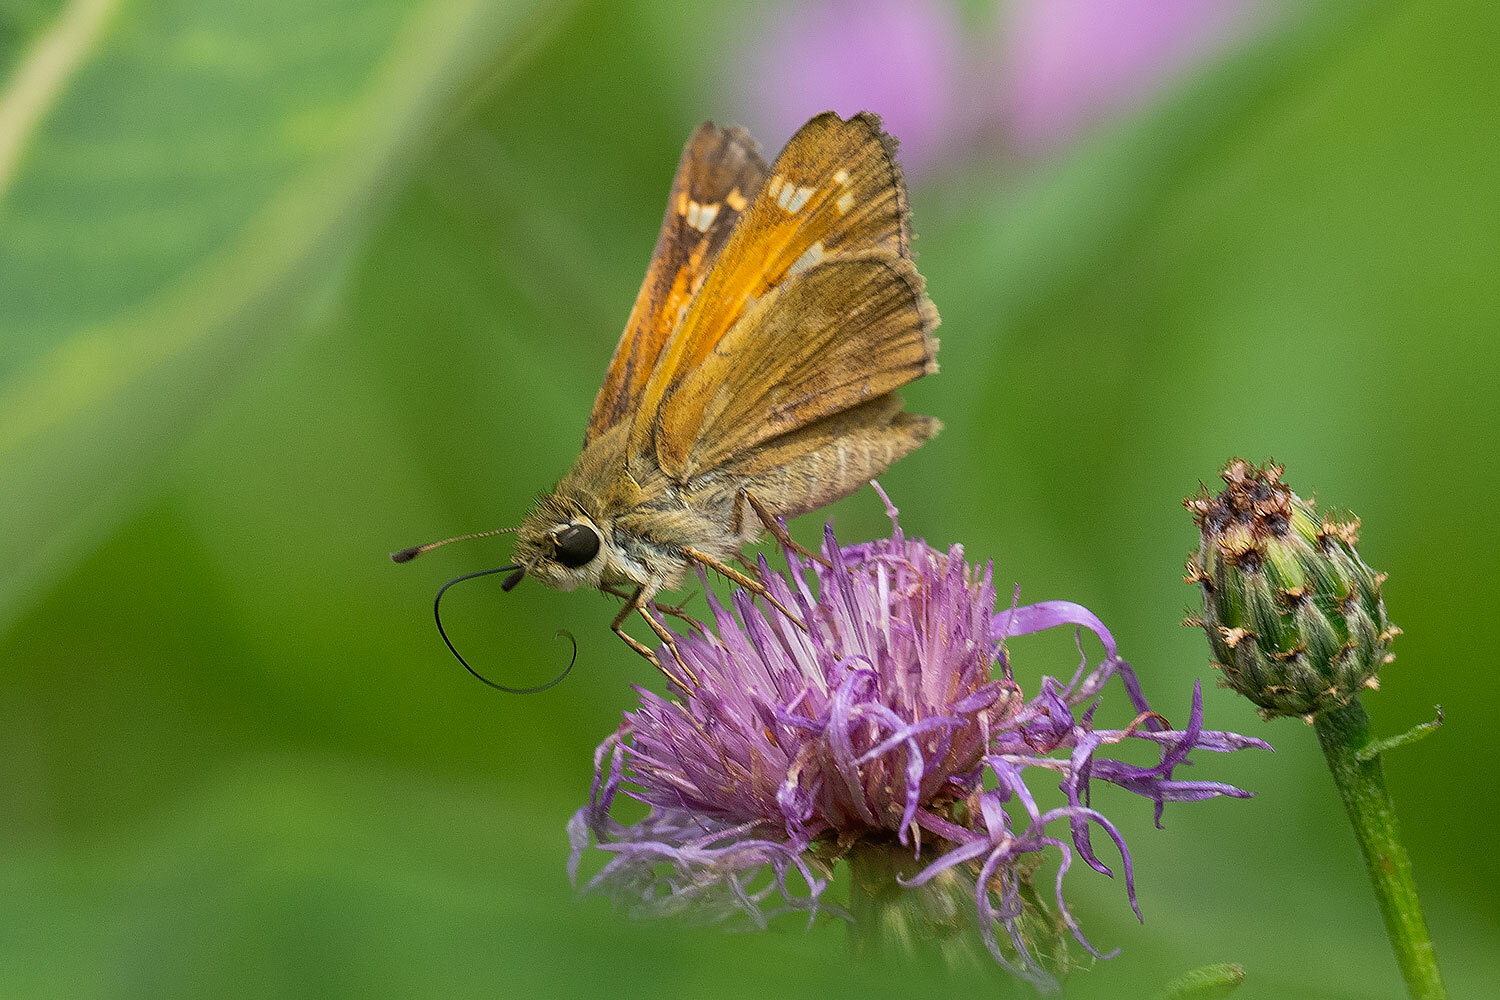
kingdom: Animalia
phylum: Arthropoda
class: Insecta
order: Lepidoptera
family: Hesperiidae
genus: Atalopedes
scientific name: Atalopedes
